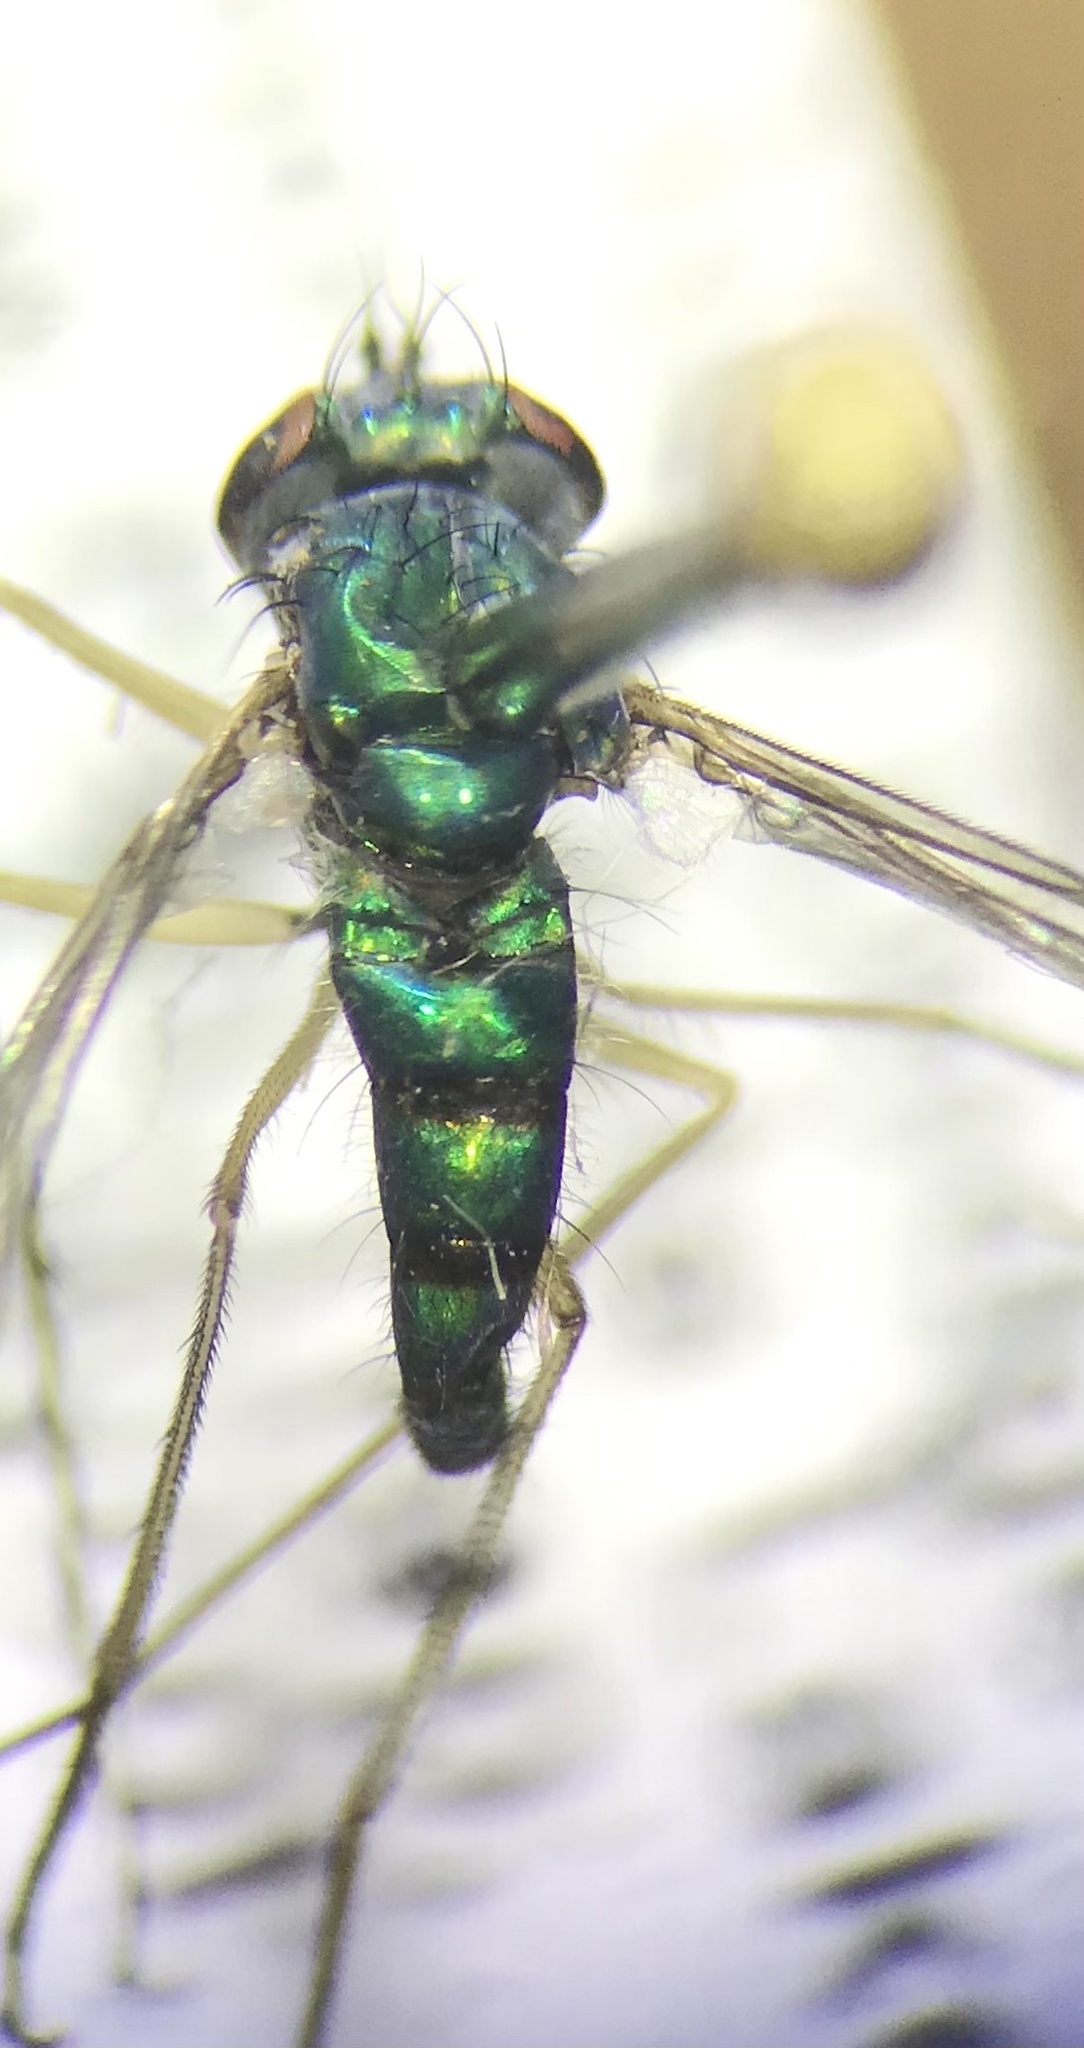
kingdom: Animalia
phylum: Arthropoda
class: Insecta
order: Diptera
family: Dolichopodidae
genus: Condylostylus
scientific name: Condylostylus sipho
